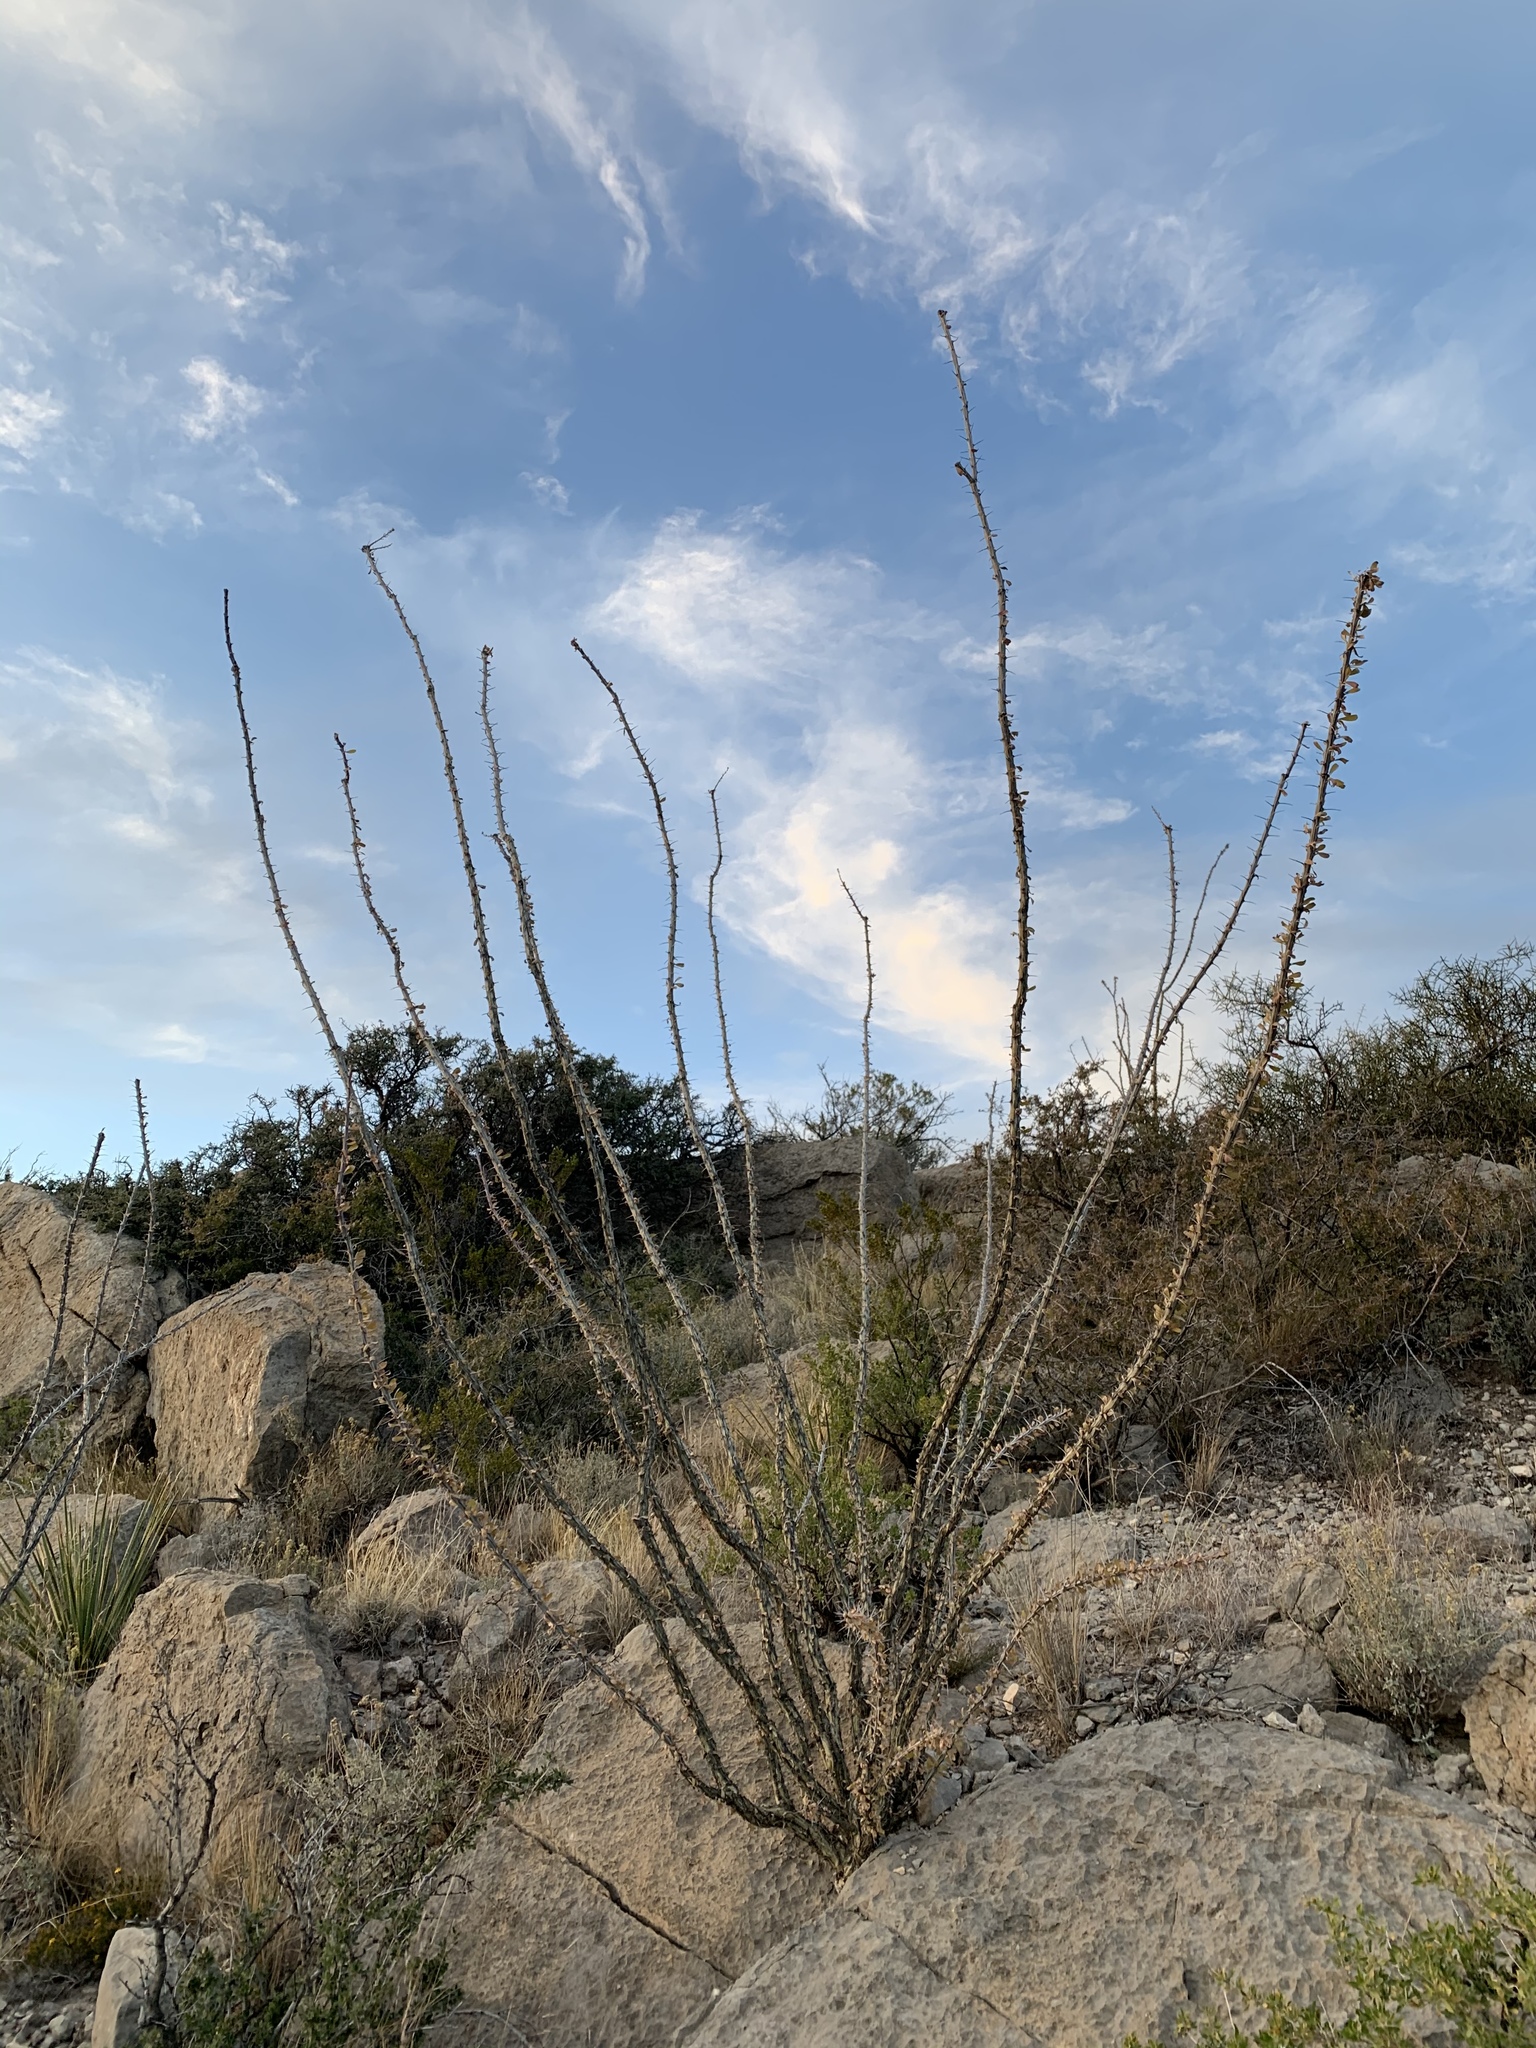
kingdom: Plantae
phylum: Tracheophyta
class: Magnoliopsida
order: Ericales
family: Fouquieriaceae
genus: Fouquieria
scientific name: Fouquieria splendens
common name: Vine-cactus
